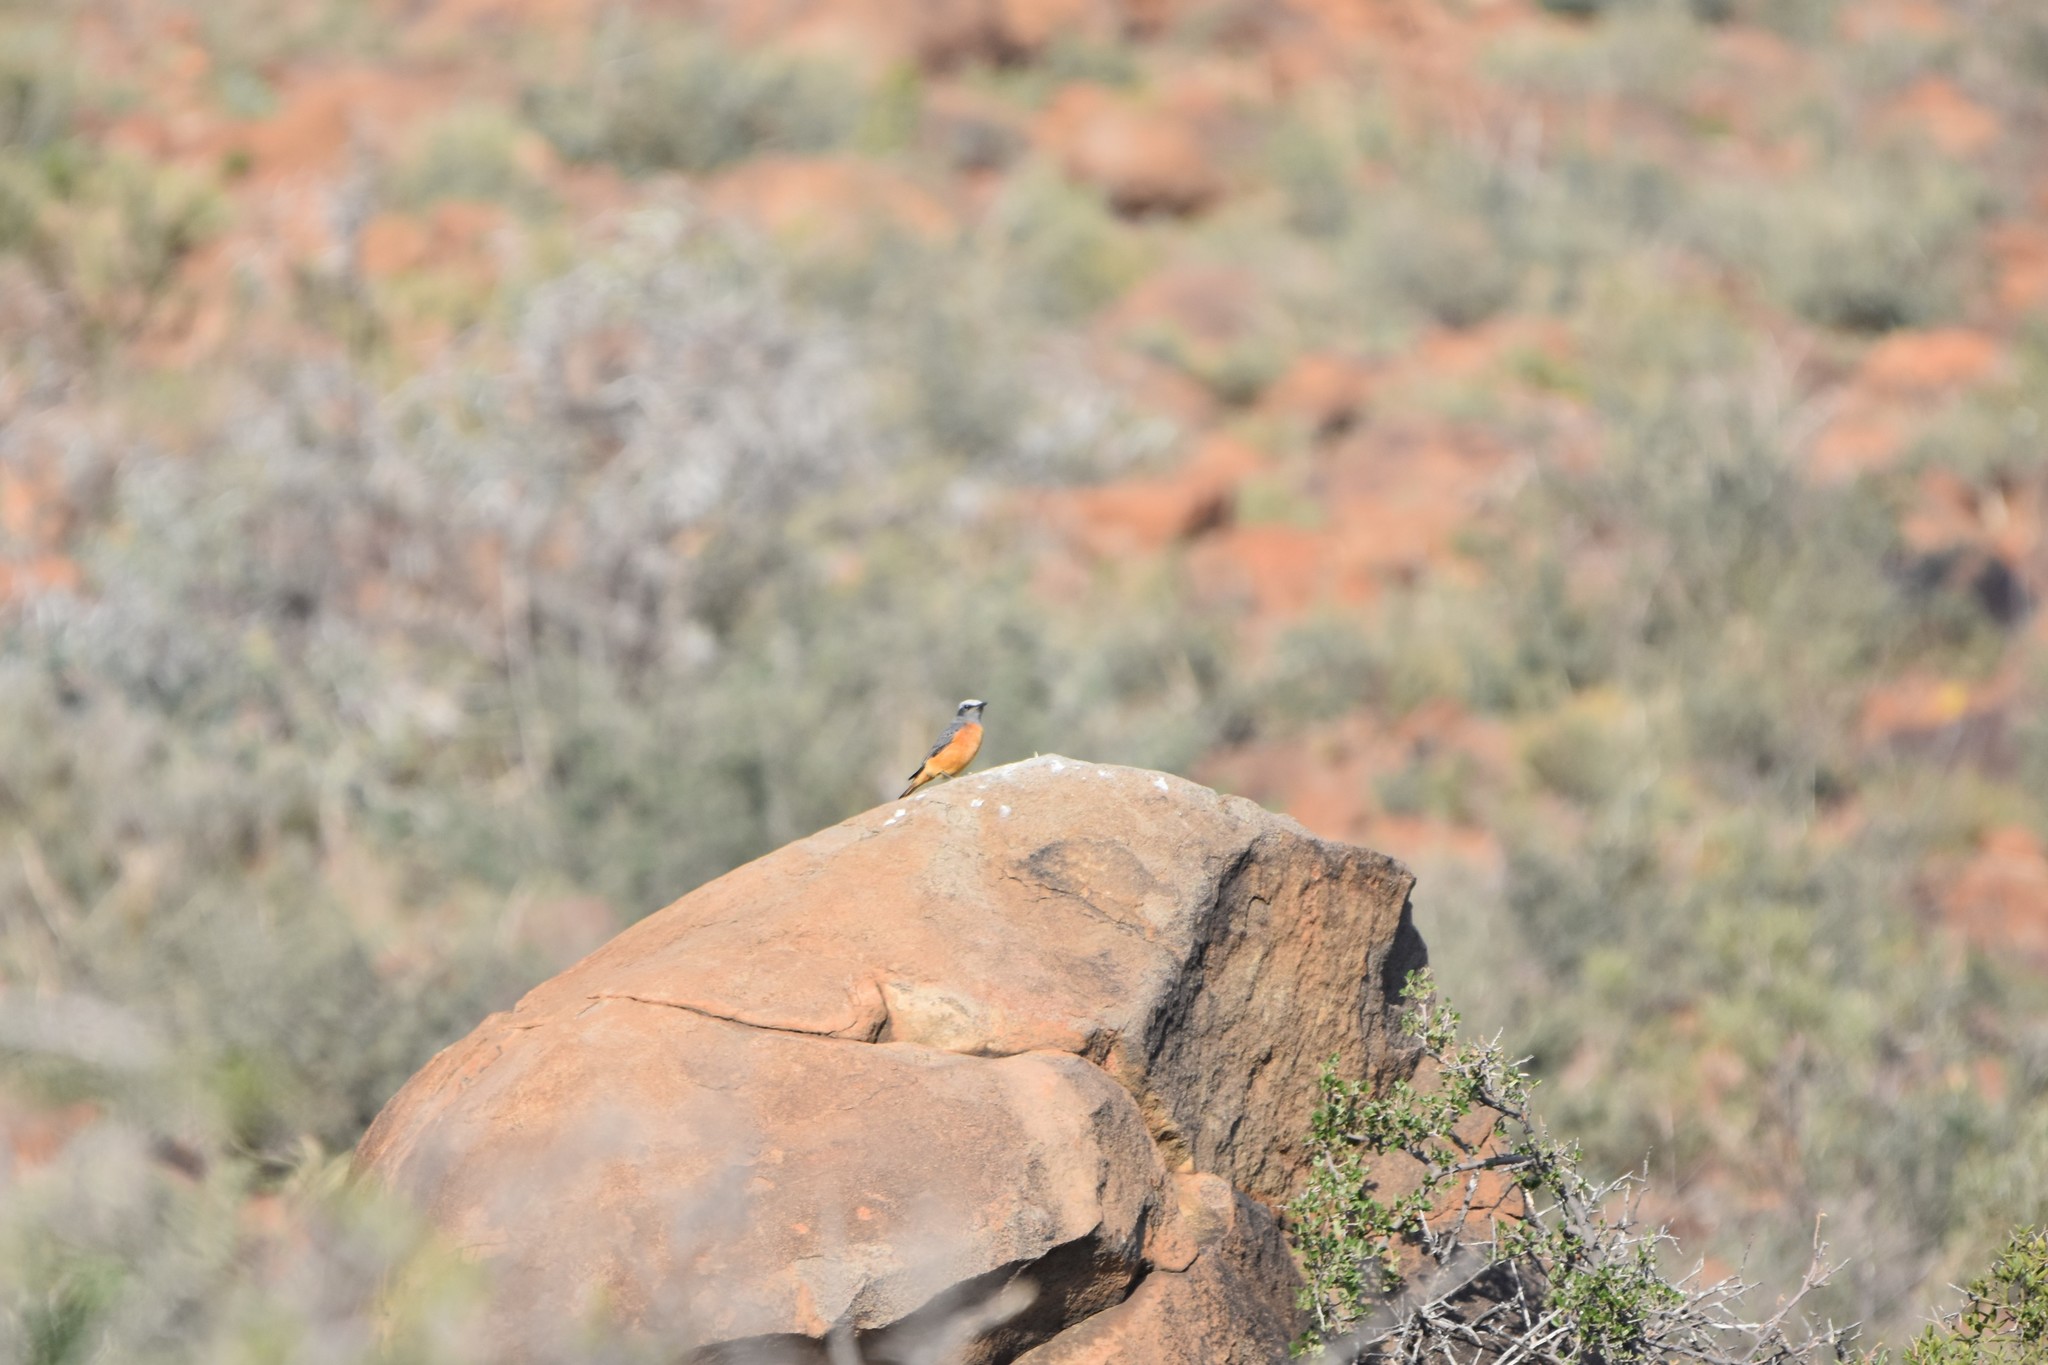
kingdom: Animalia
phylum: Chordata
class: Aves
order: Passeriformes
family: Muscicapidae
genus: Monticola
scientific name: Monticola brevipes
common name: Short-toed rock thrush
